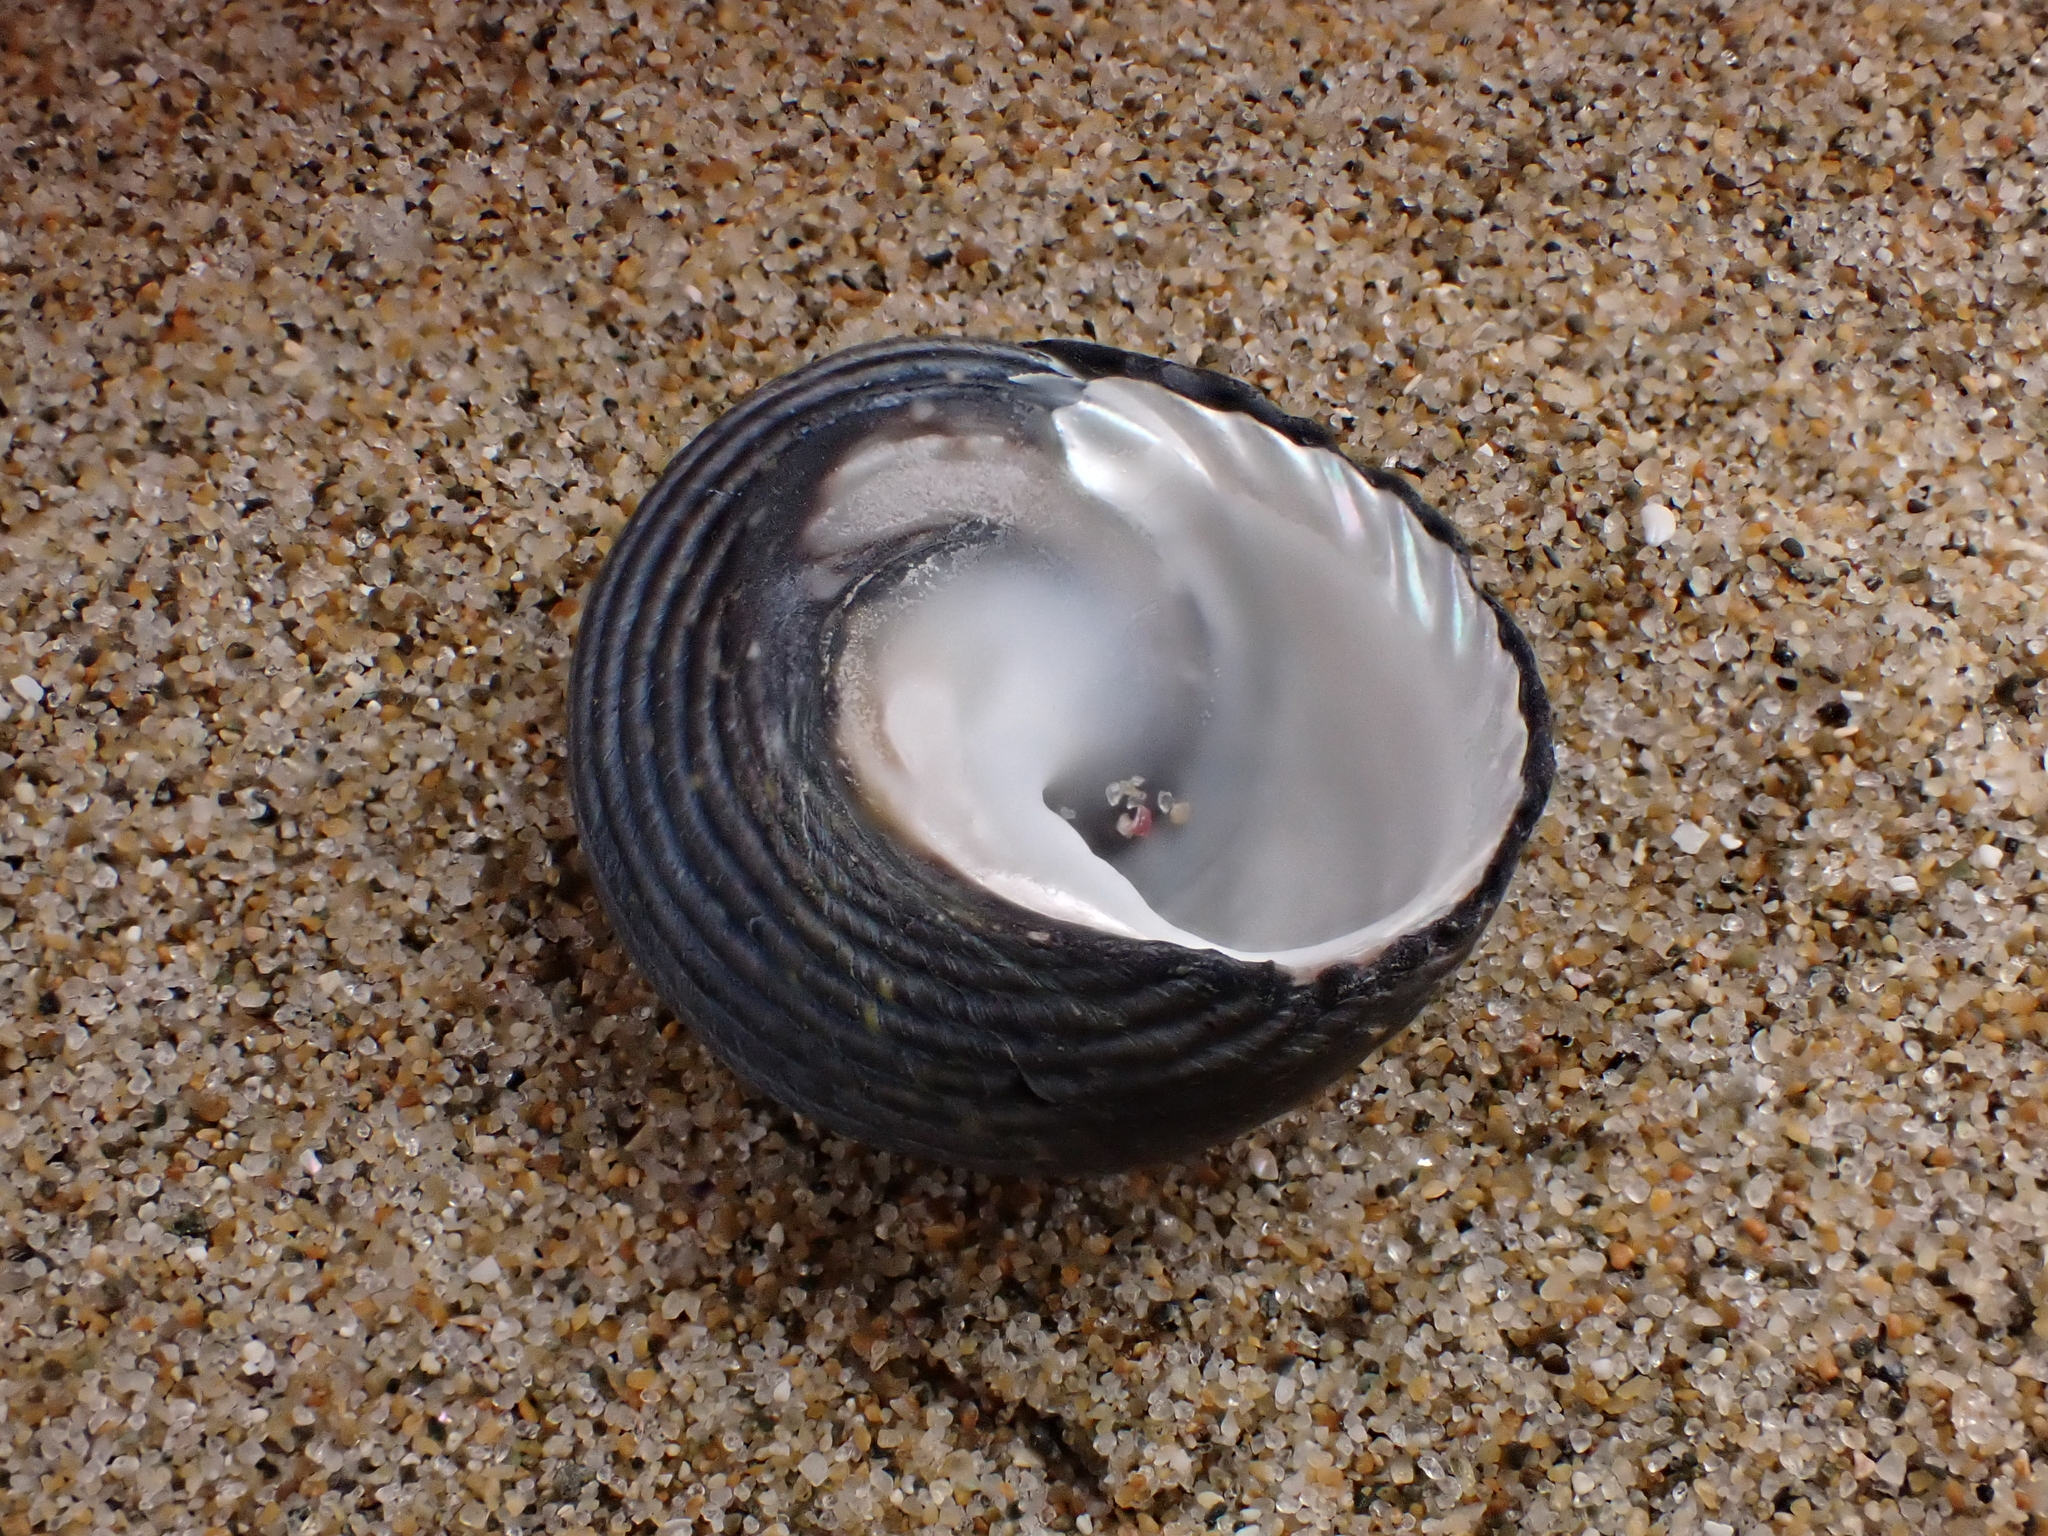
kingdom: Animalia
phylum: Mollusca
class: Gastropoda
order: Trochida
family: Trochidae
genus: Diloma
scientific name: Diloma zelandicum
